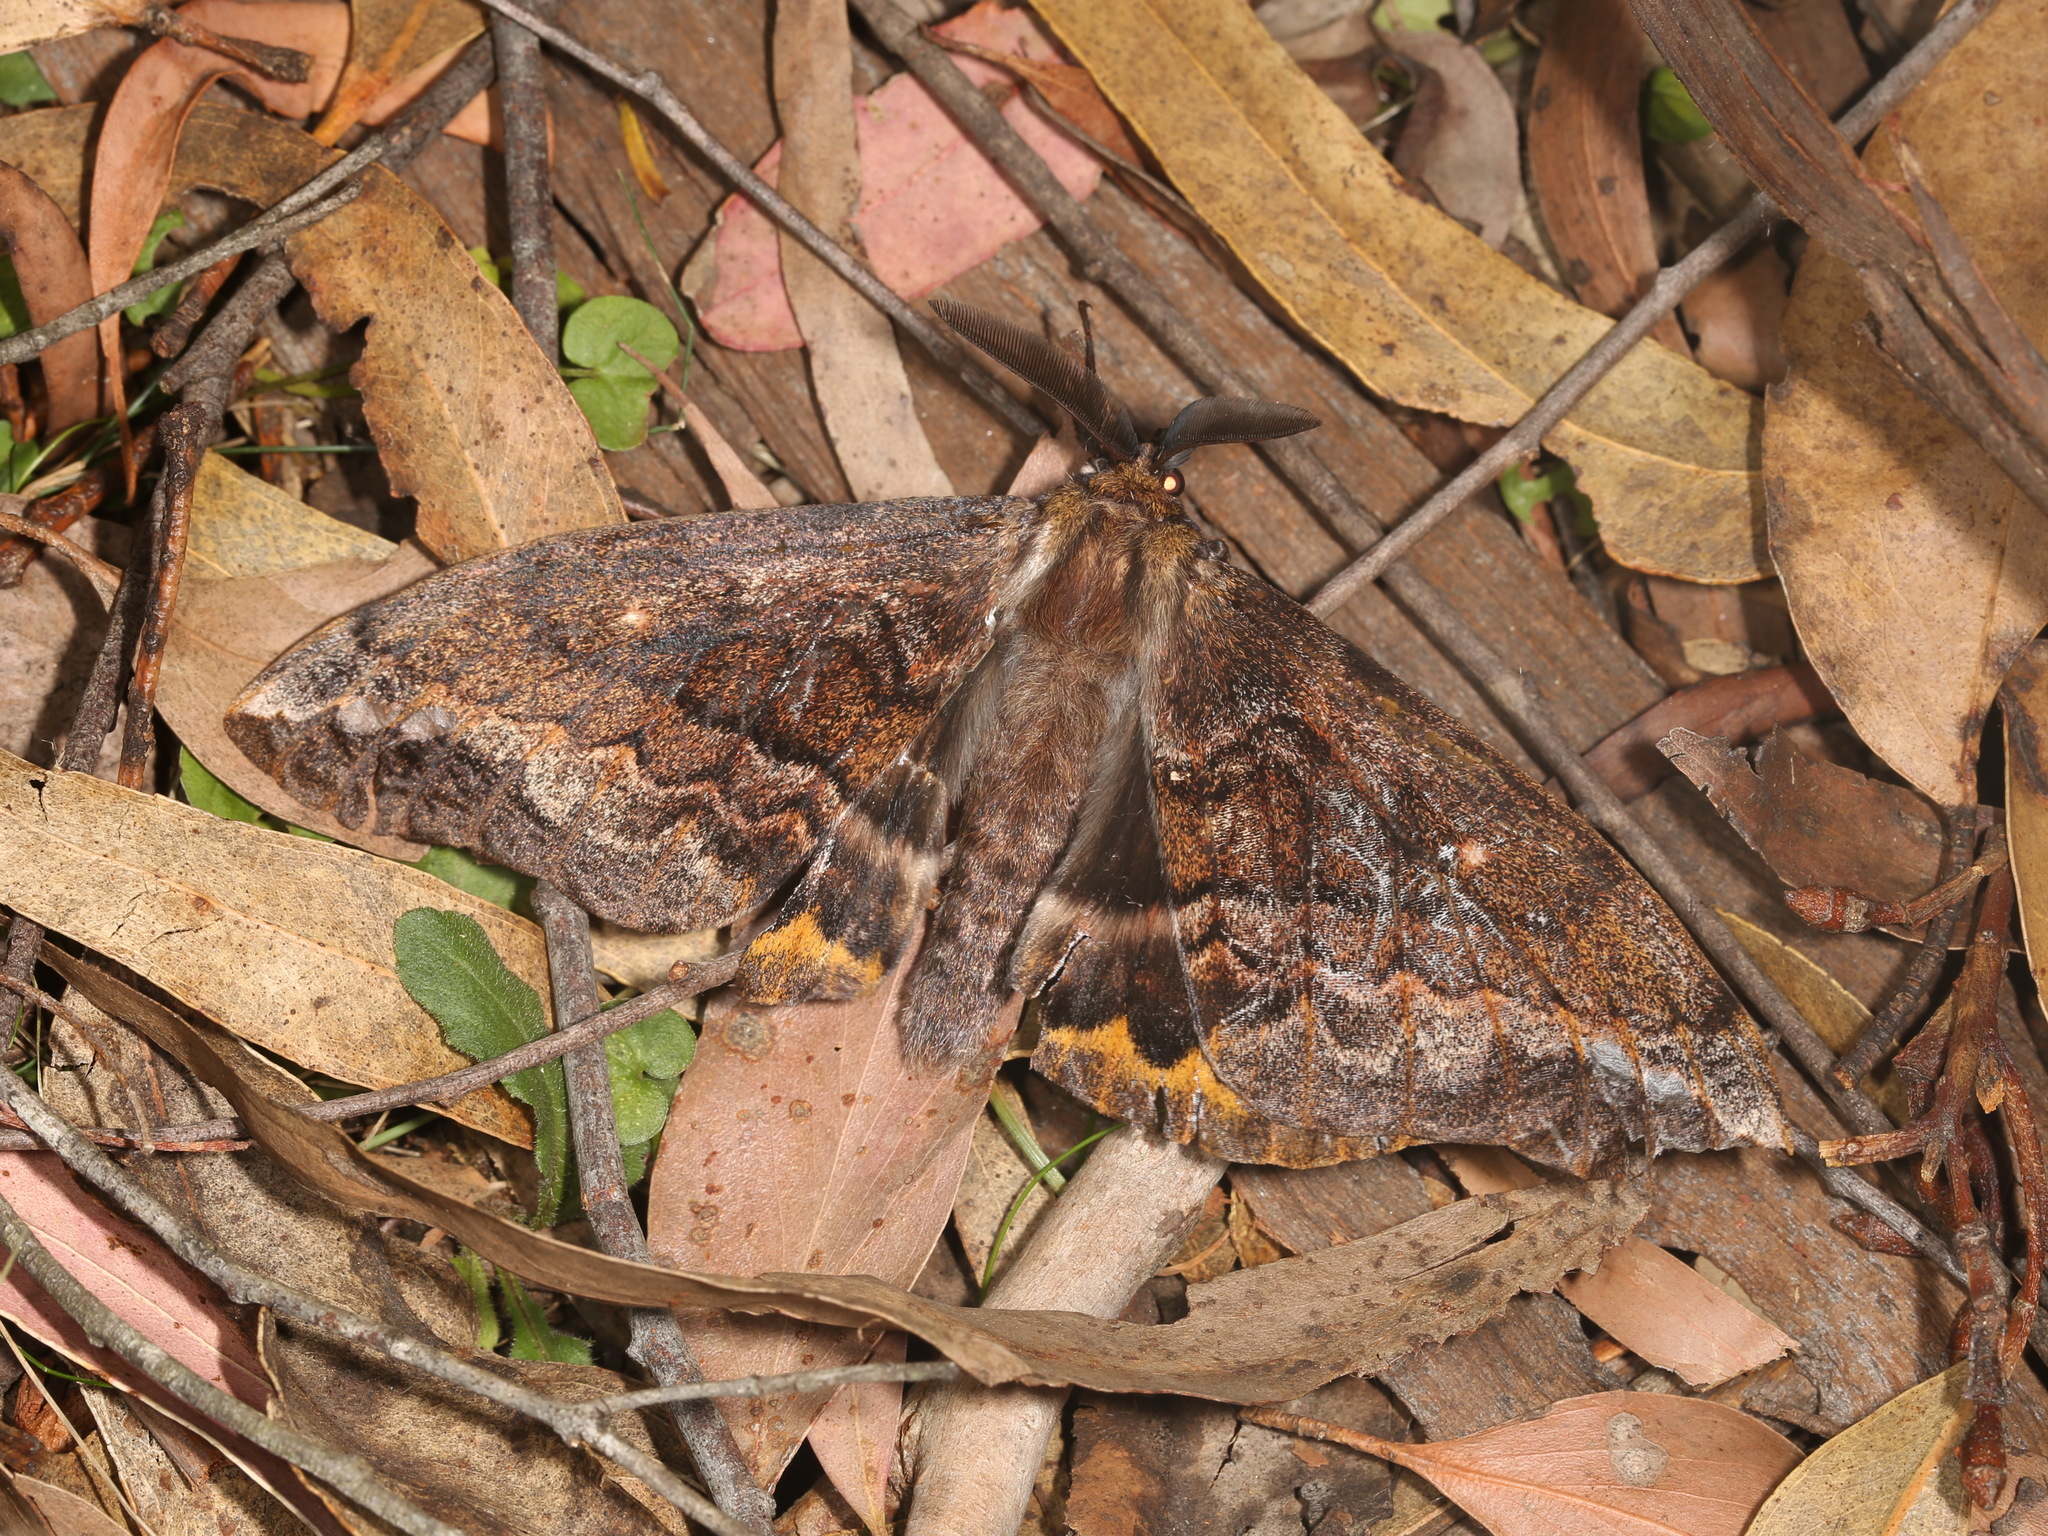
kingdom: Animalia
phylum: Arthropoda
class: Insecta
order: Lepidoptera
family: Anthelidae
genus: Chelepteryx
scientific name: Chelepteryx collesi
